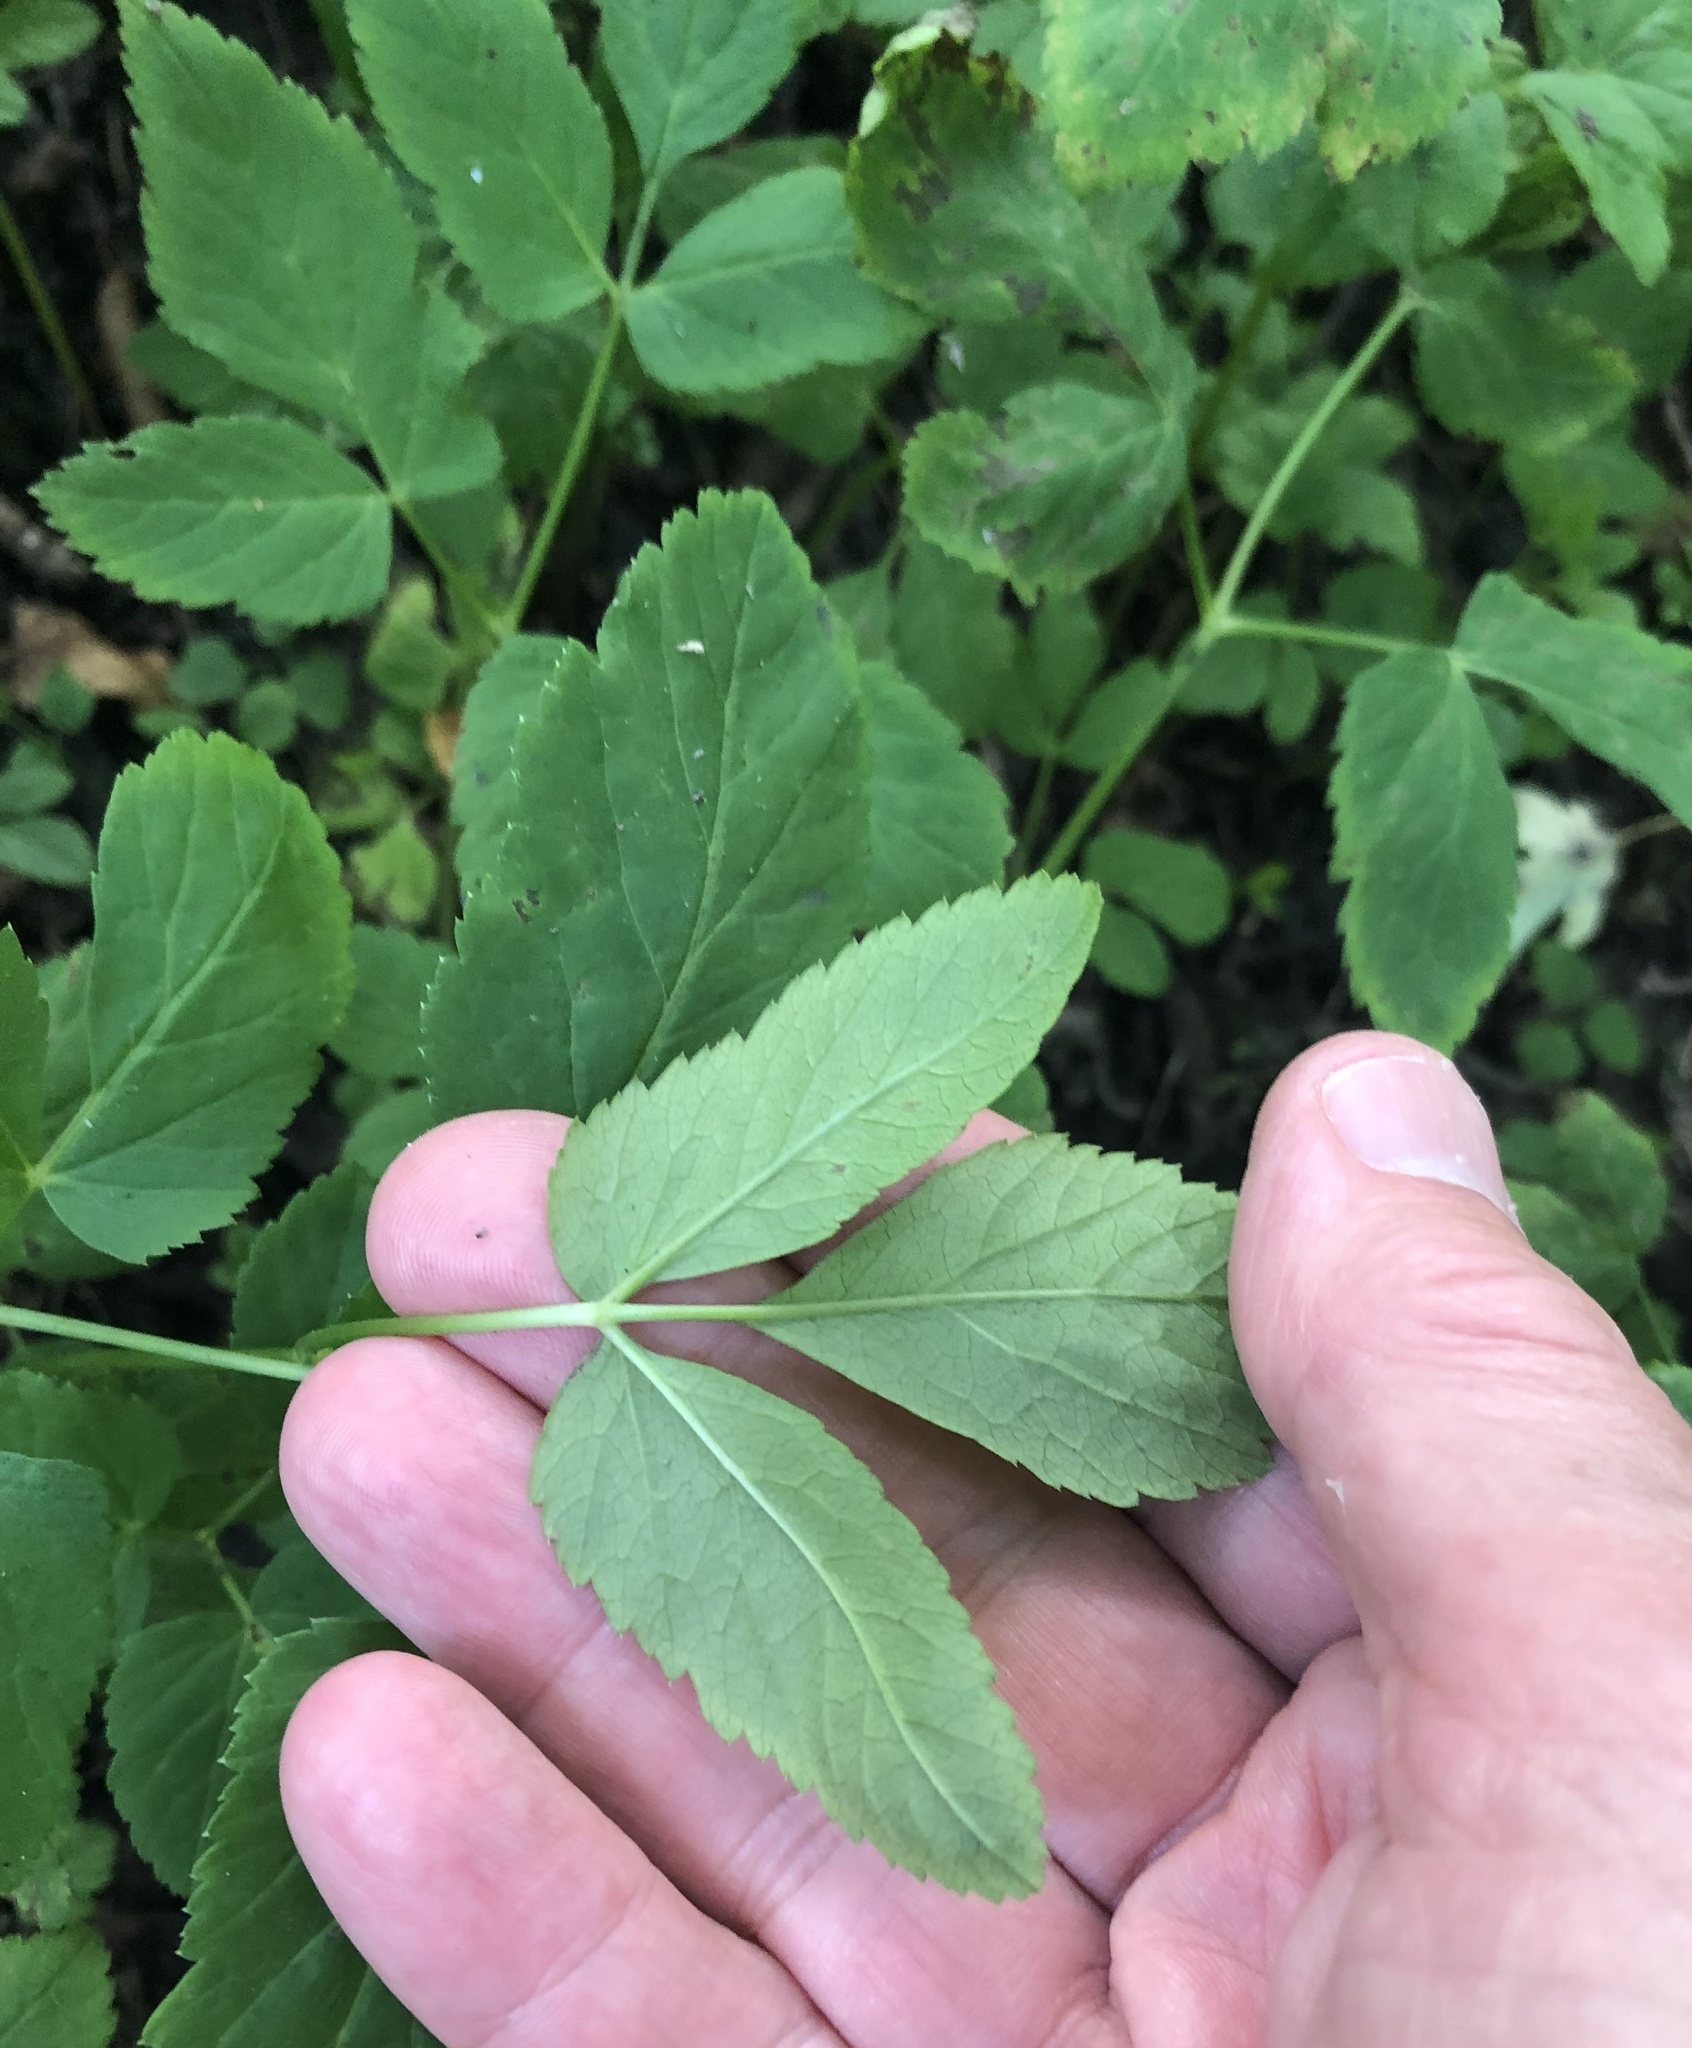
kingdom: Plantae
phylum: Tracheophyta
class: Magnoliopsida
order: Apiales
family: Apiaceae
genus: Aegopodium
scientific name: Aegopodium podagraria
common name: Ground-elder
